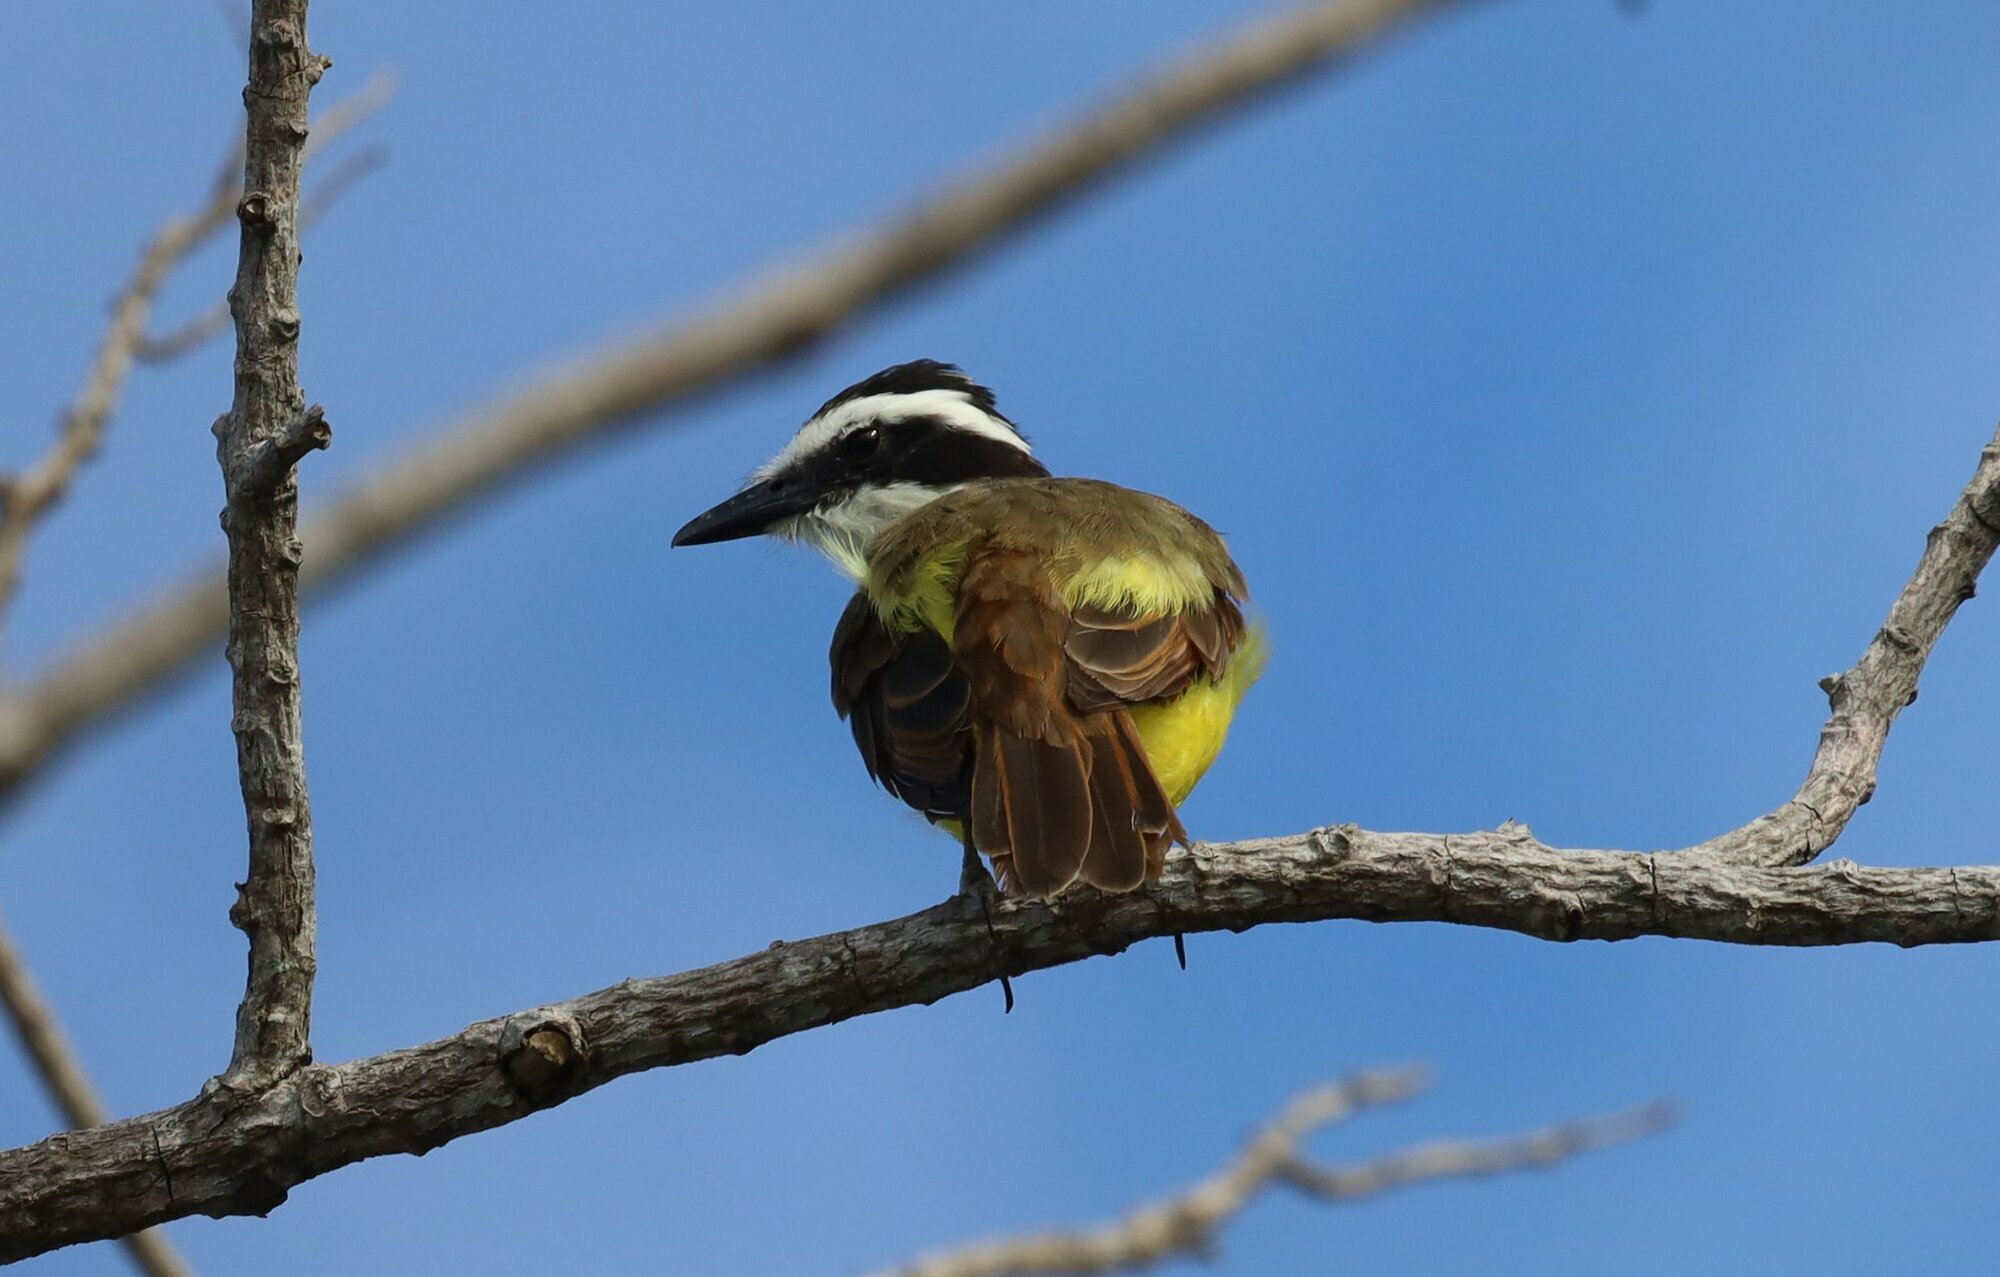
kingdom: Animalia
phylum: Chordata
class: Aves
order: Passeriformes
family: Tyrannidae
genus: Pitangus
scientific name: Pitangus sulphuratus
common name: Great kiskadee
